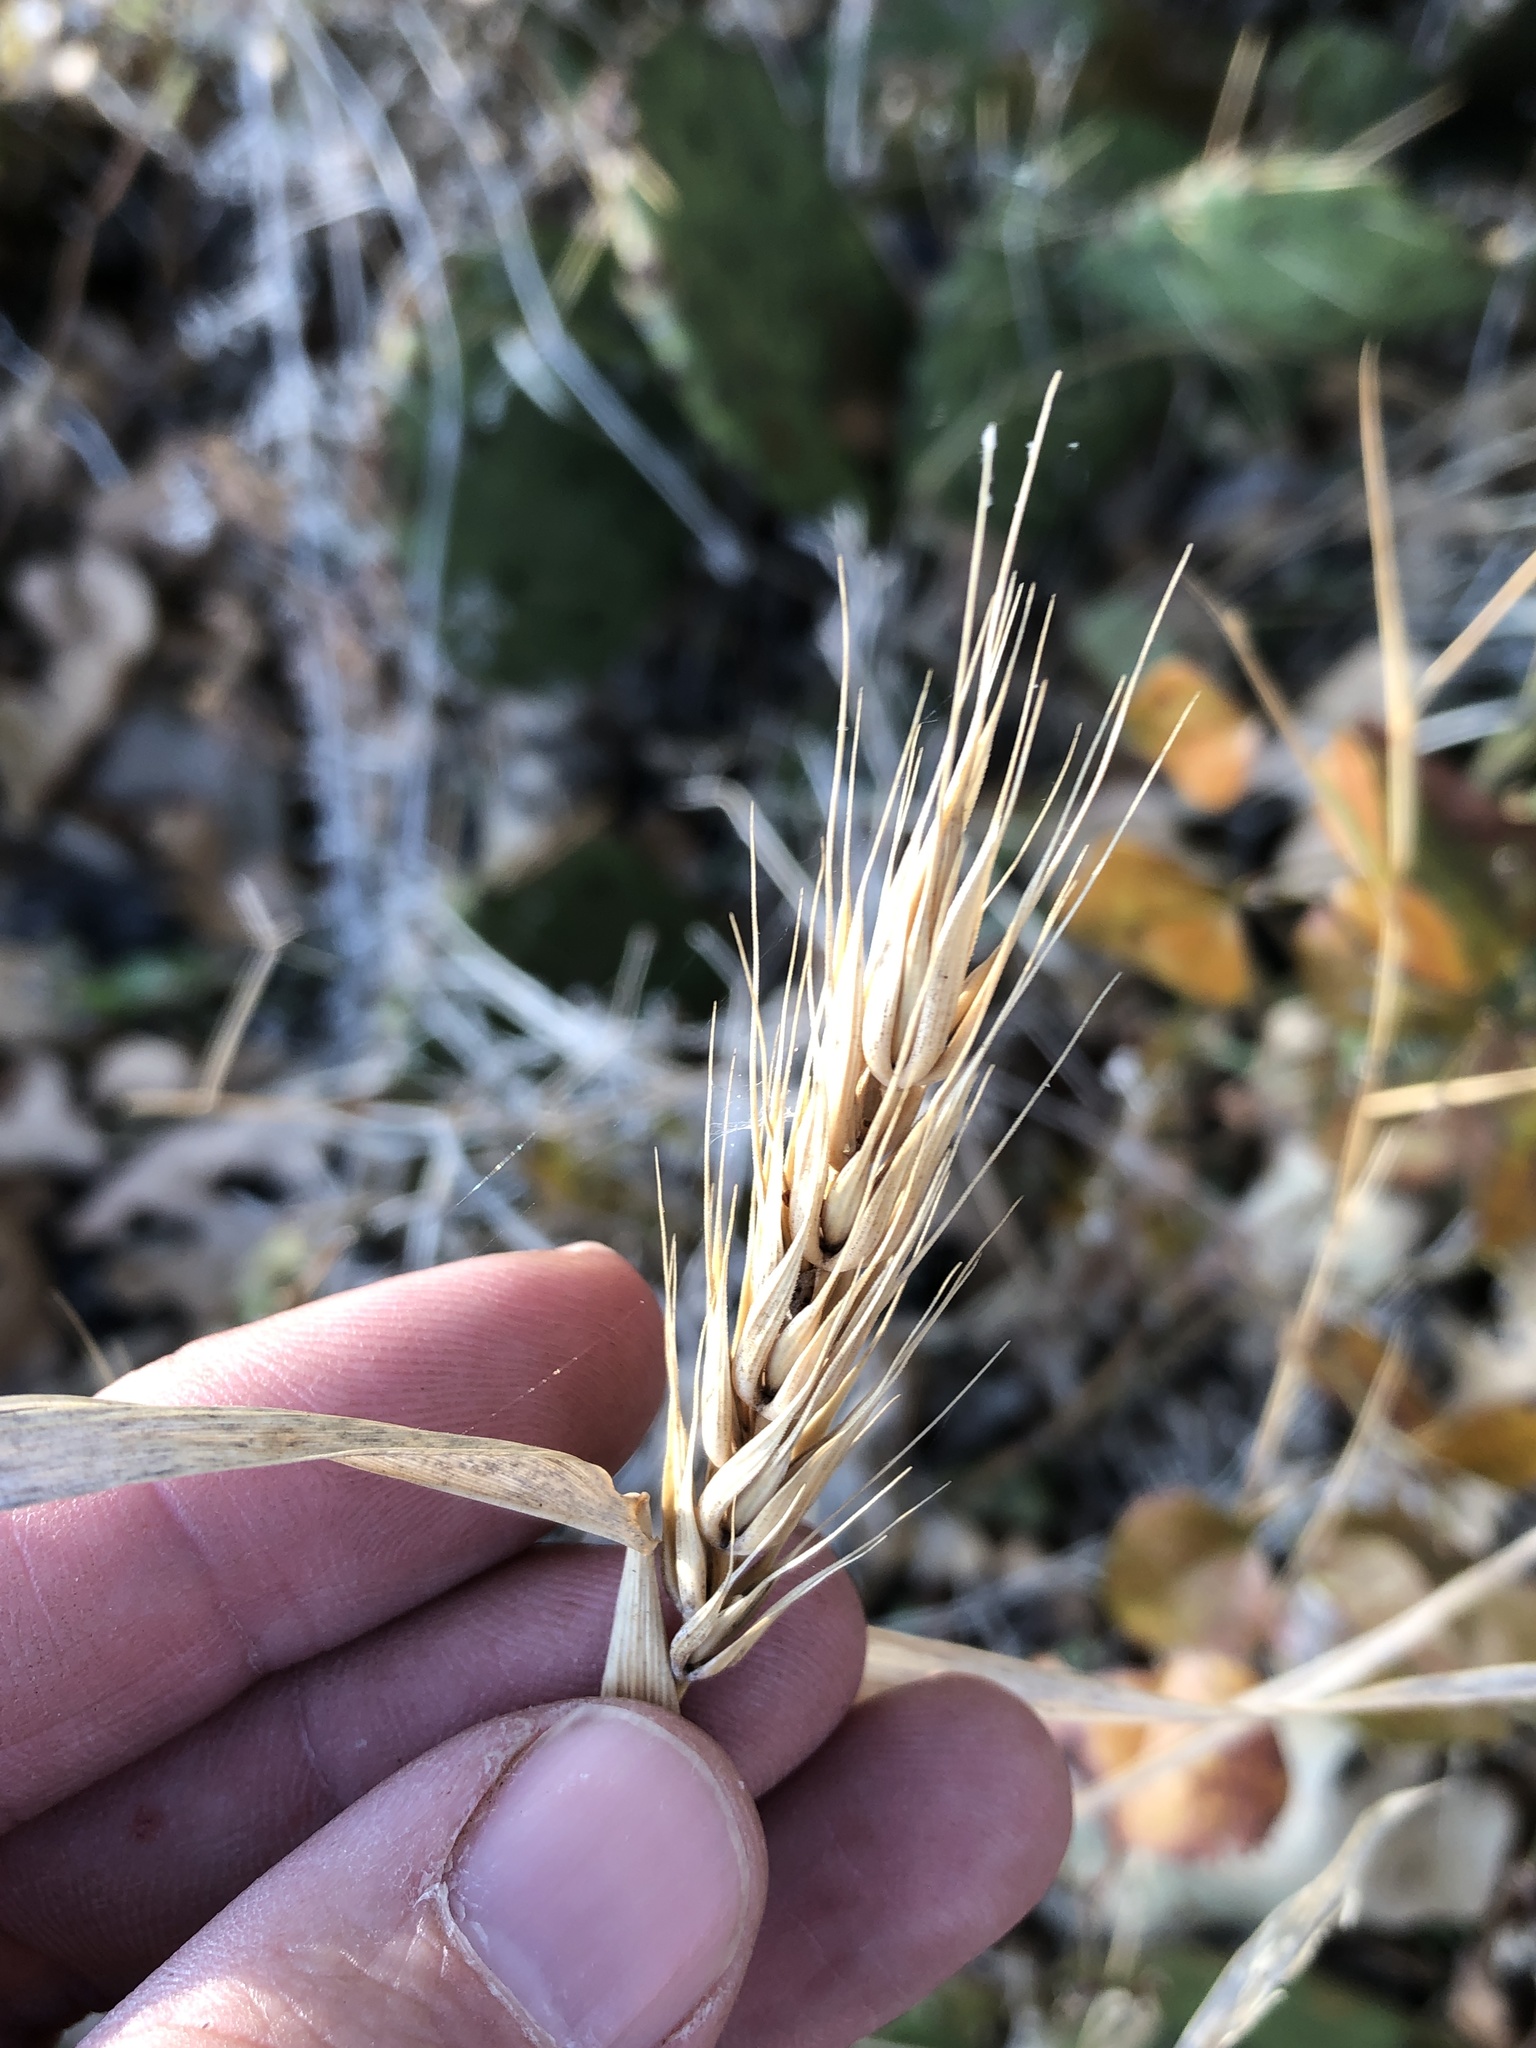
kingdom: Plantae
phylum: Tracheophyta
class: Liliopsida
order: Poales
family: Poaceae
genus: Elymus
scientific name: Elymus virginicus
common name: Common eastern wildrye
